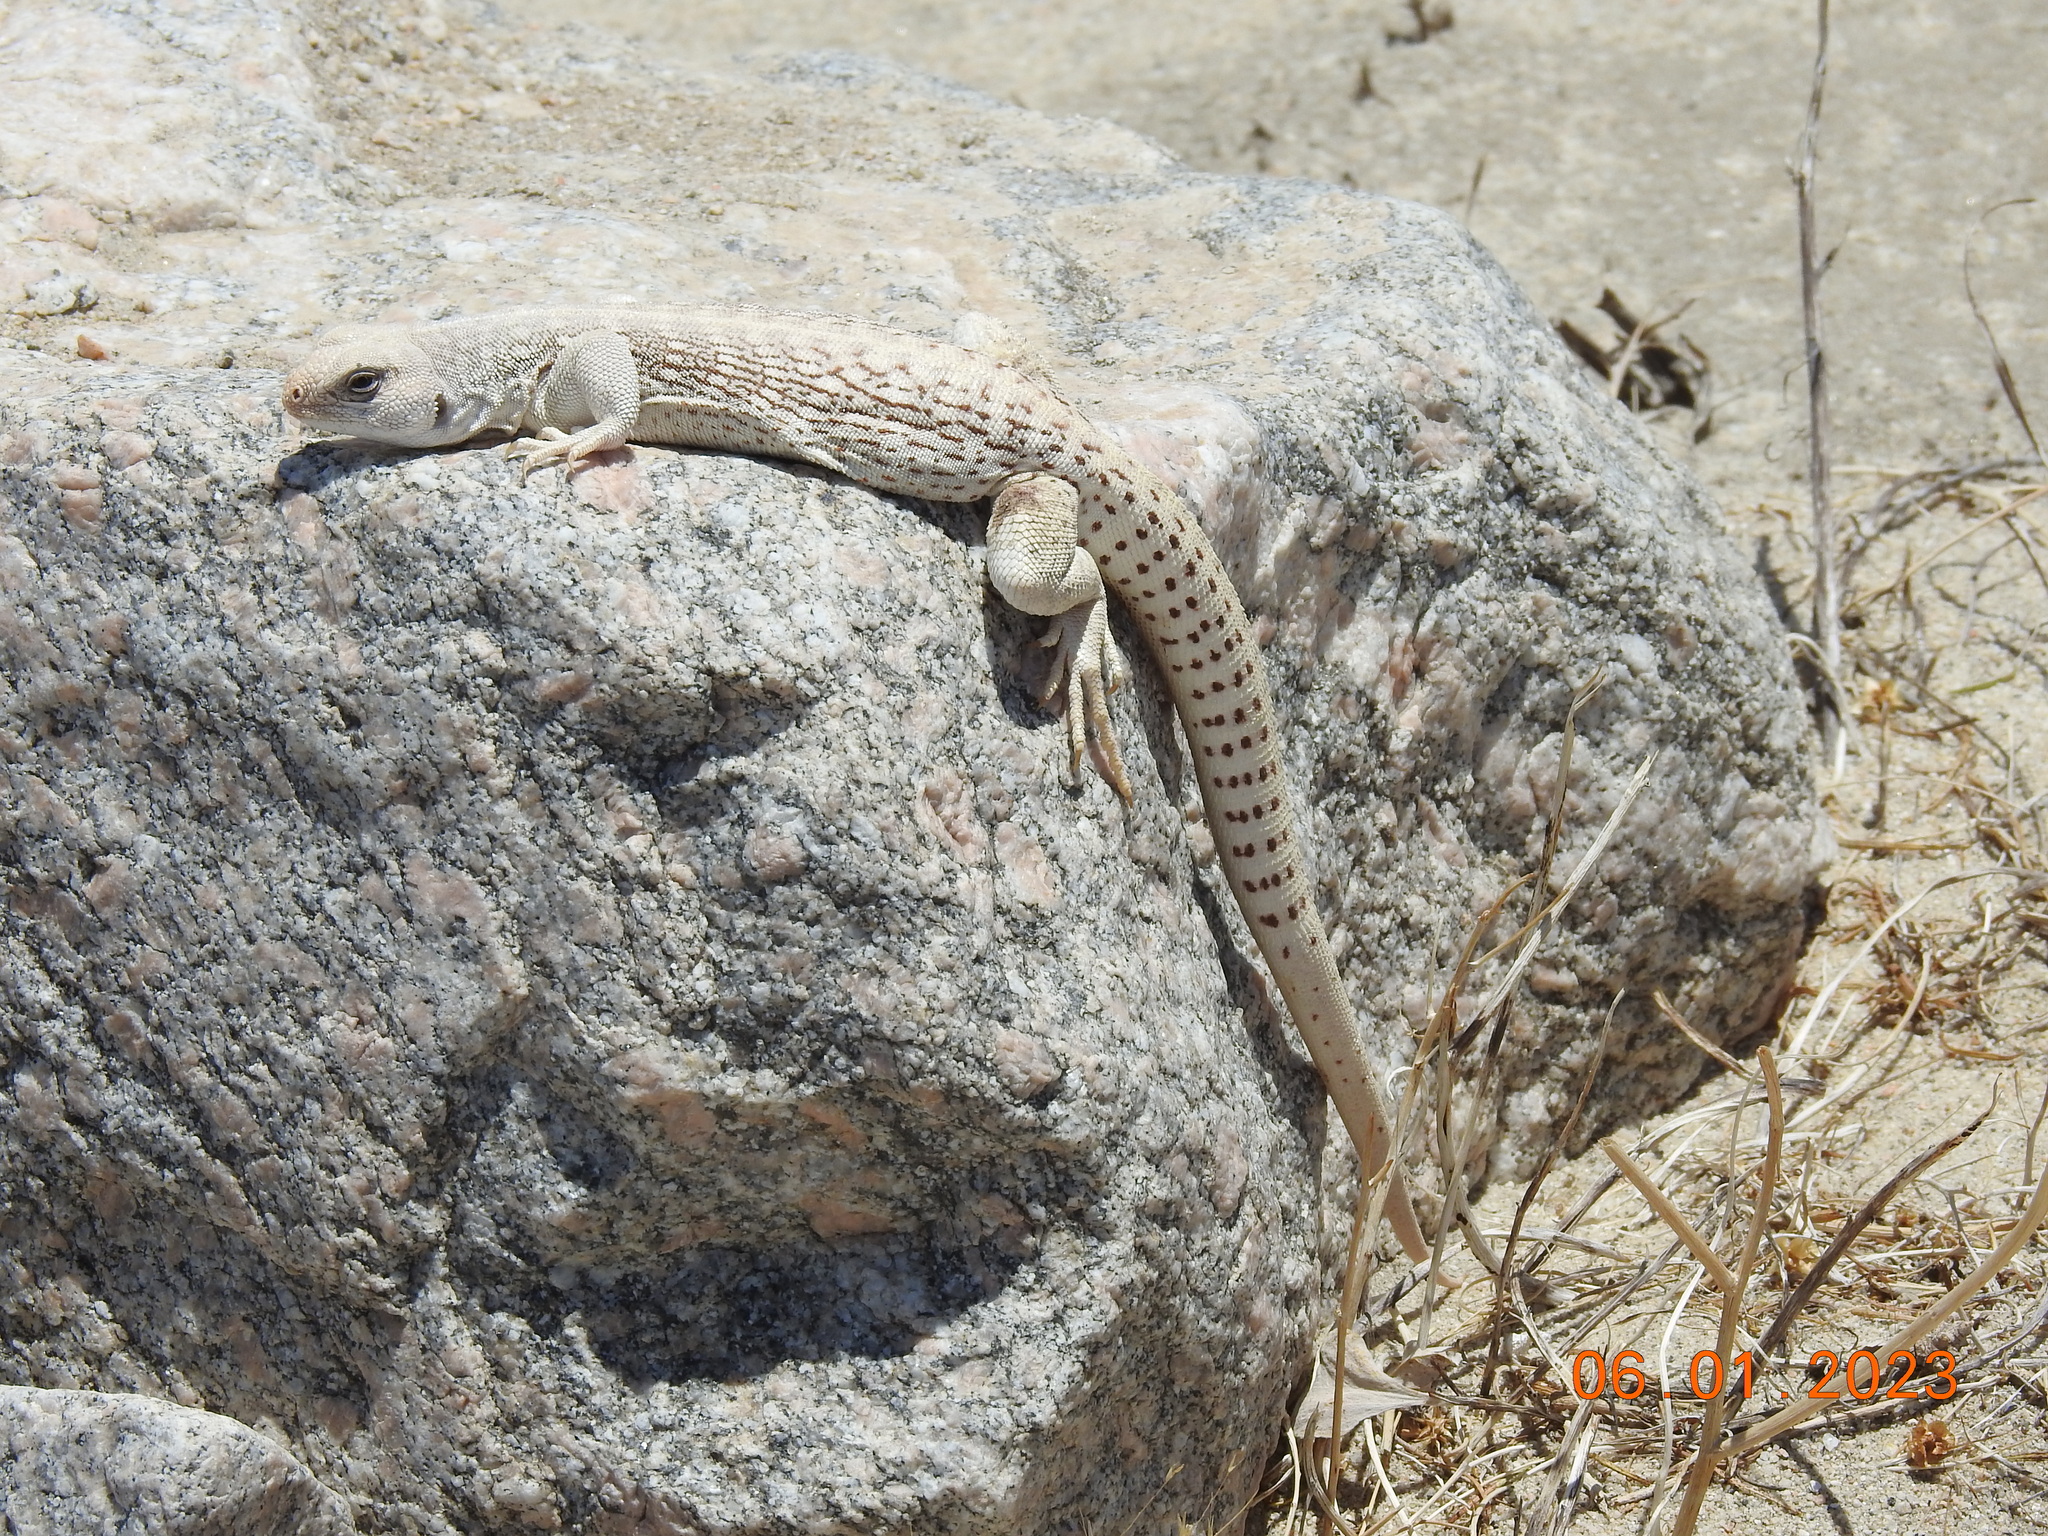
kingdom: Animalia
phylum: Chordata
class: Squamata
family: Iguanidae
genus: Dipsosaurus
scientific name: Dipsosaurus dorsalis
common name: Desert iguana
